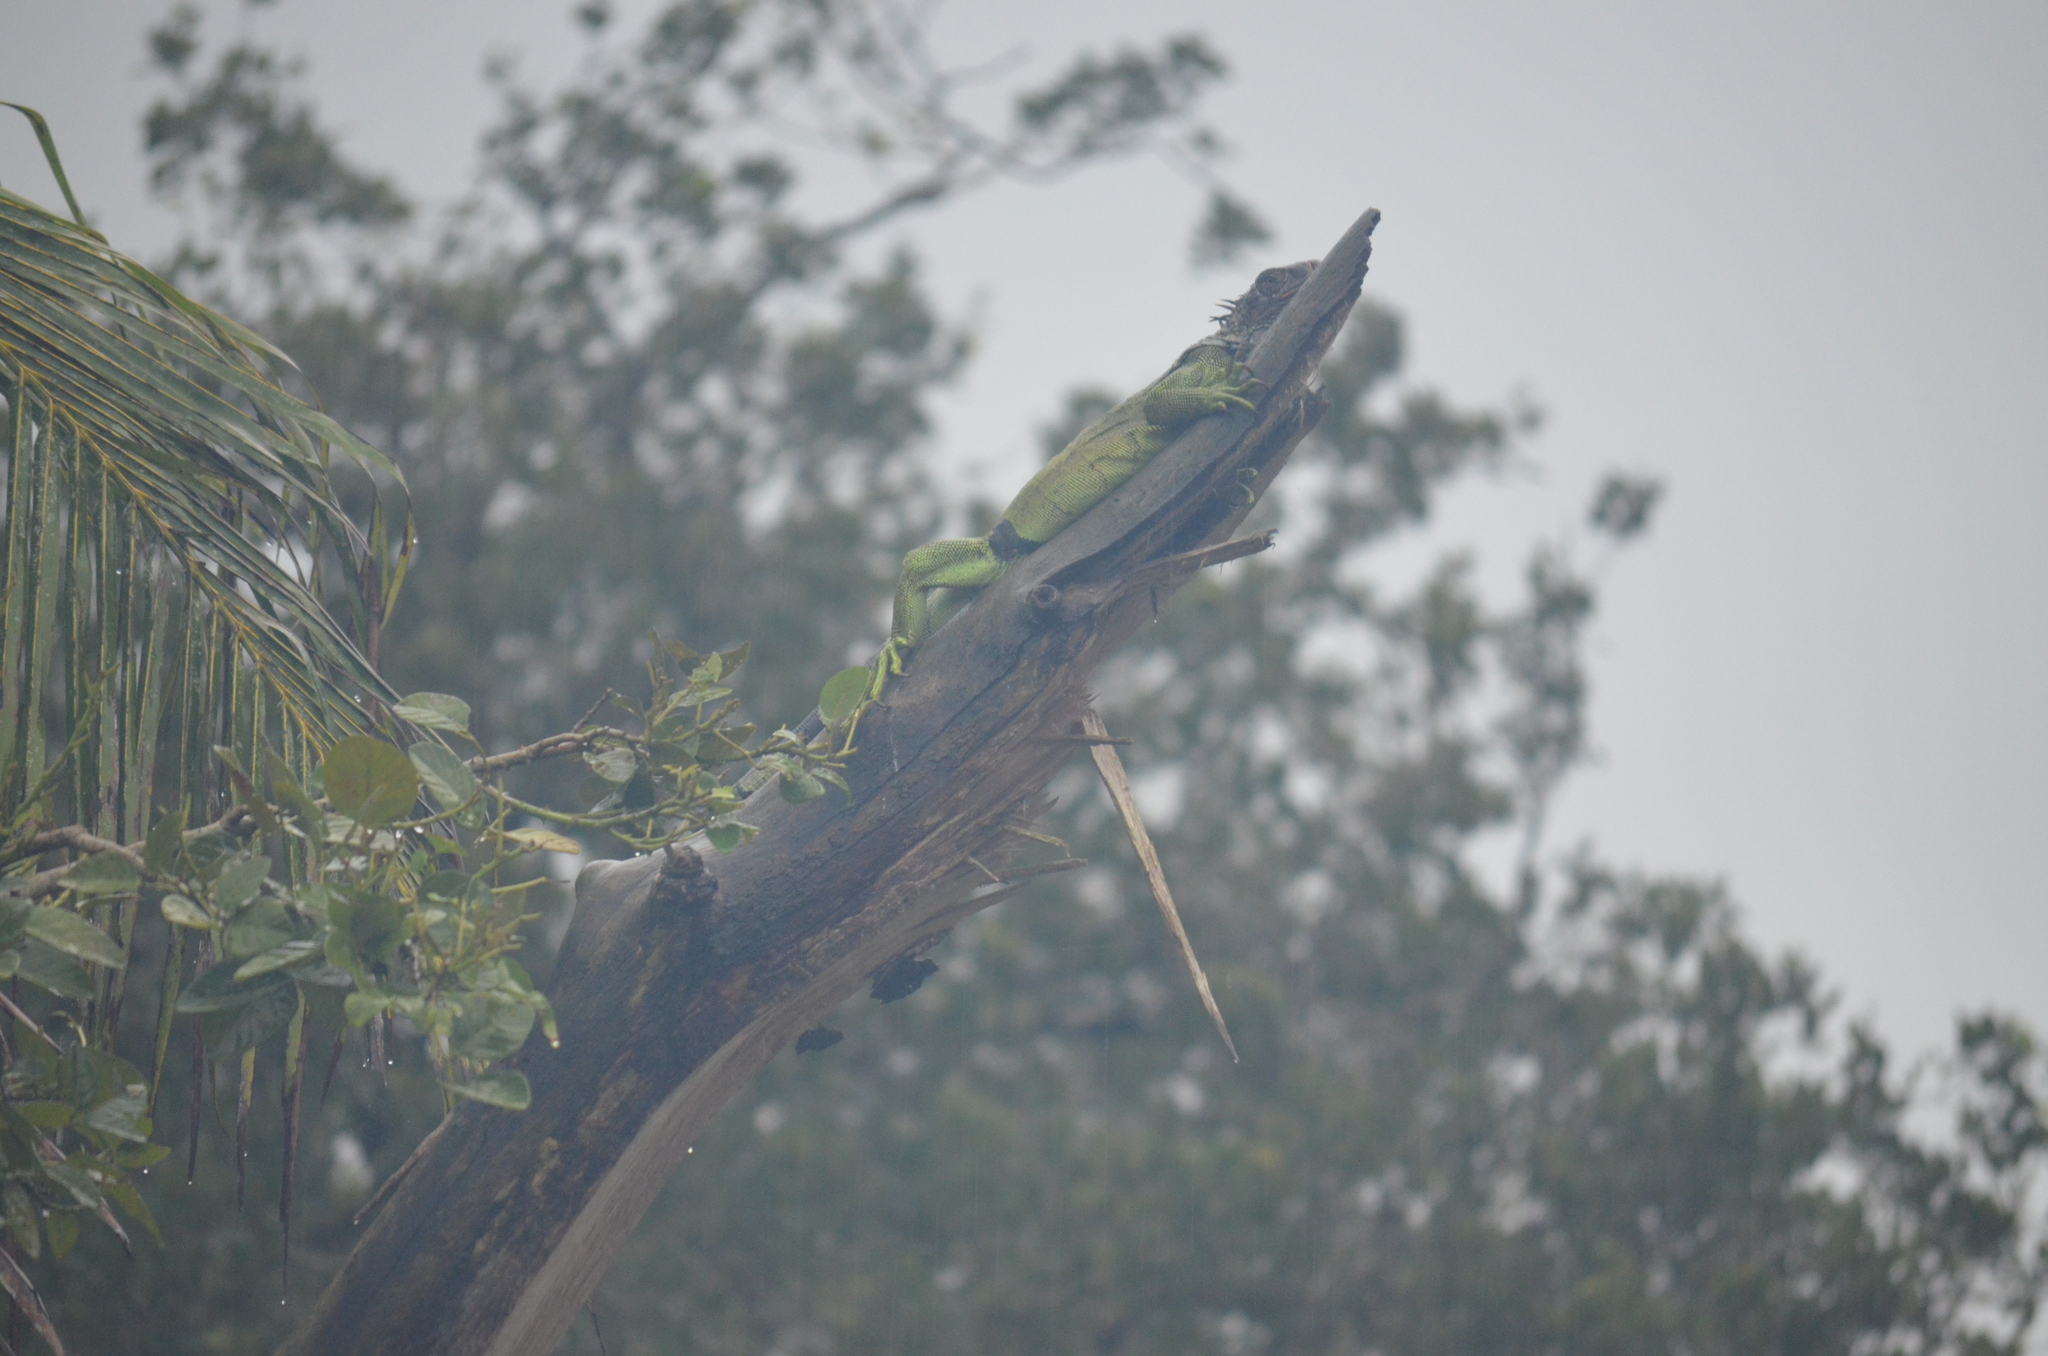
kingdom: Animalia
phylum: Chordata
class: Squamata
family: Iguanidae
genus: Iguana
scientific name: Iguana iguana
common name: Green iguana
